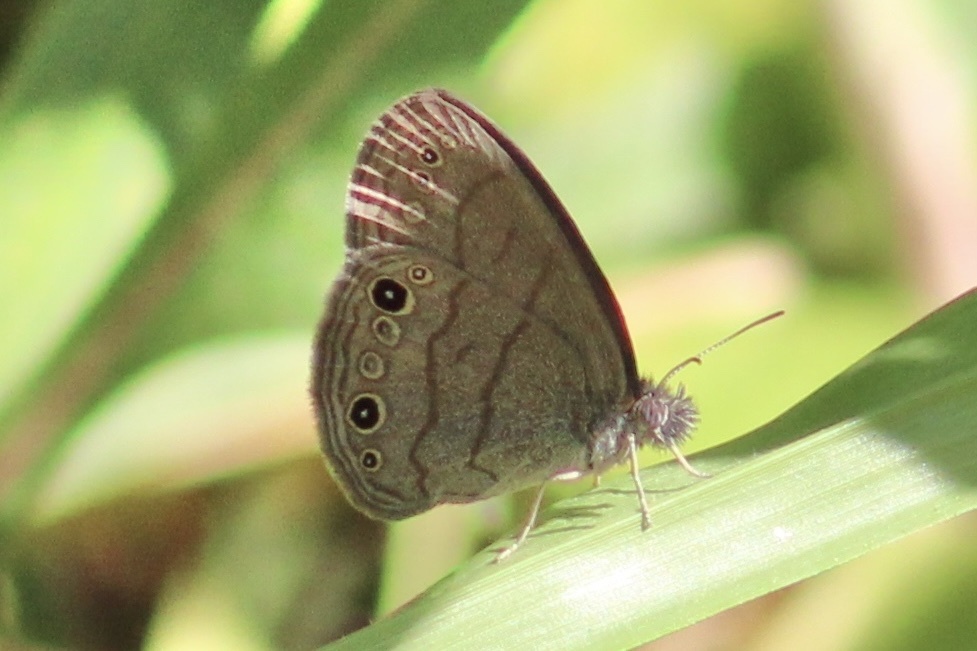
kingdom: Animalia
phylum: Arthropoda
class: Insecta
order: Lepidoptera
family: Nymphalidae
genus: Hermeuptychia
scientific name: Hermeuptychia hermes
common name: Hermes satyr
